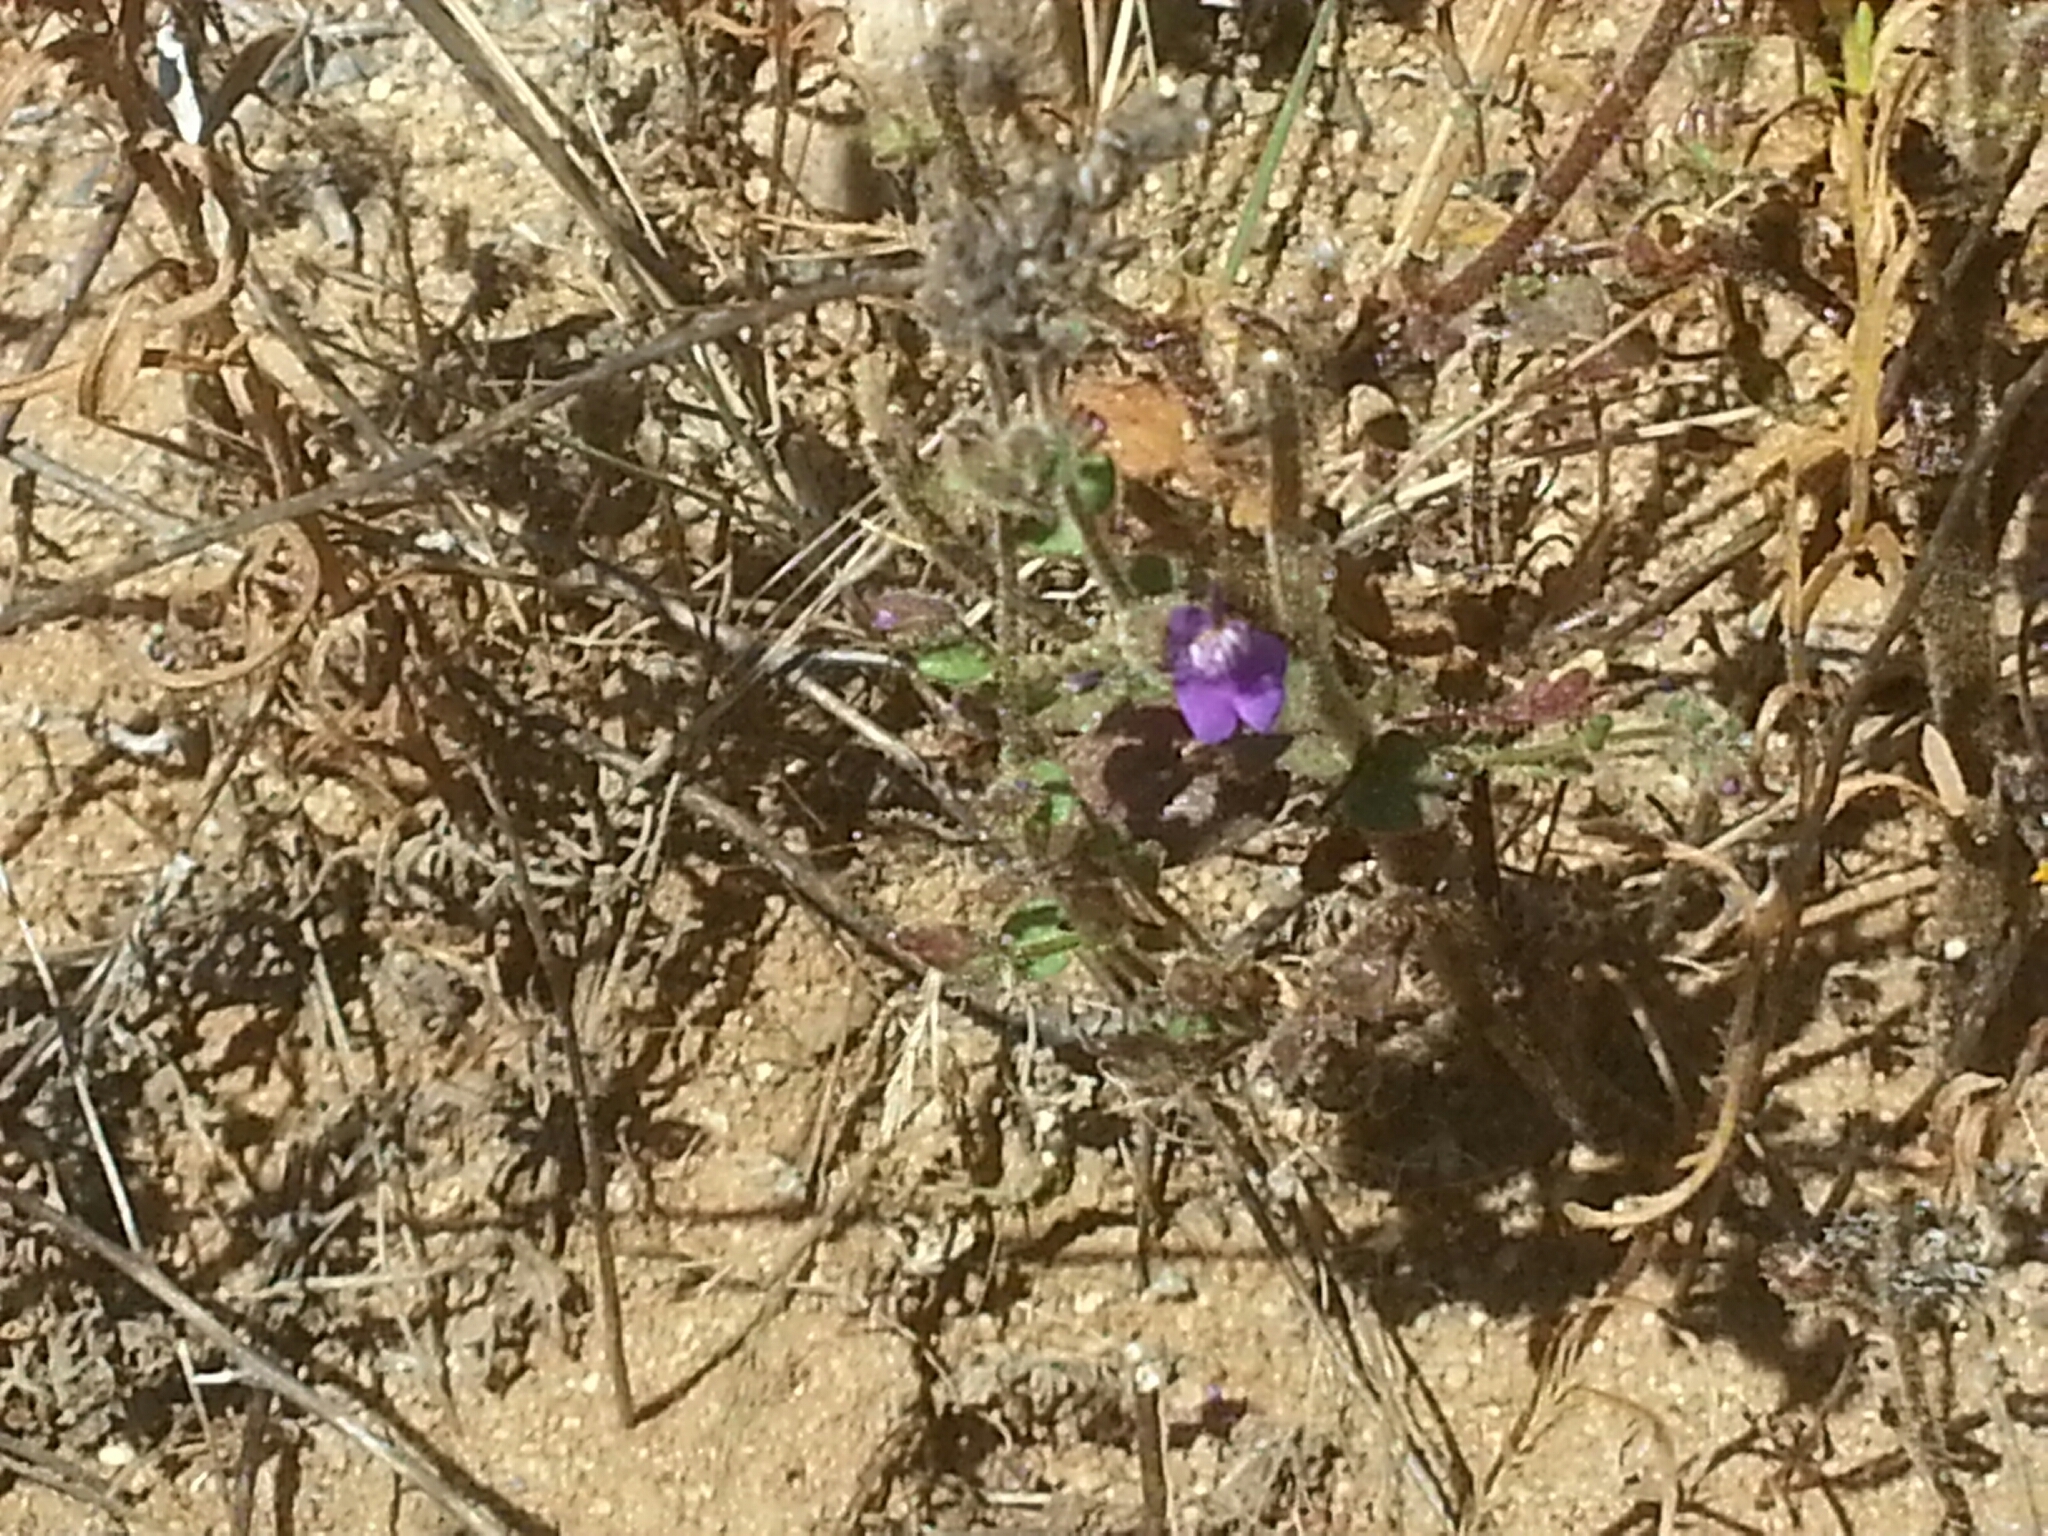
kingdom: Plantae
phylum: Tracheophyta
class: Magnoliopsida
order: Lamiales
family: Plantaginaceae
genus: Sairocarpus
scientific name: Sairocarpus nuttallianus
